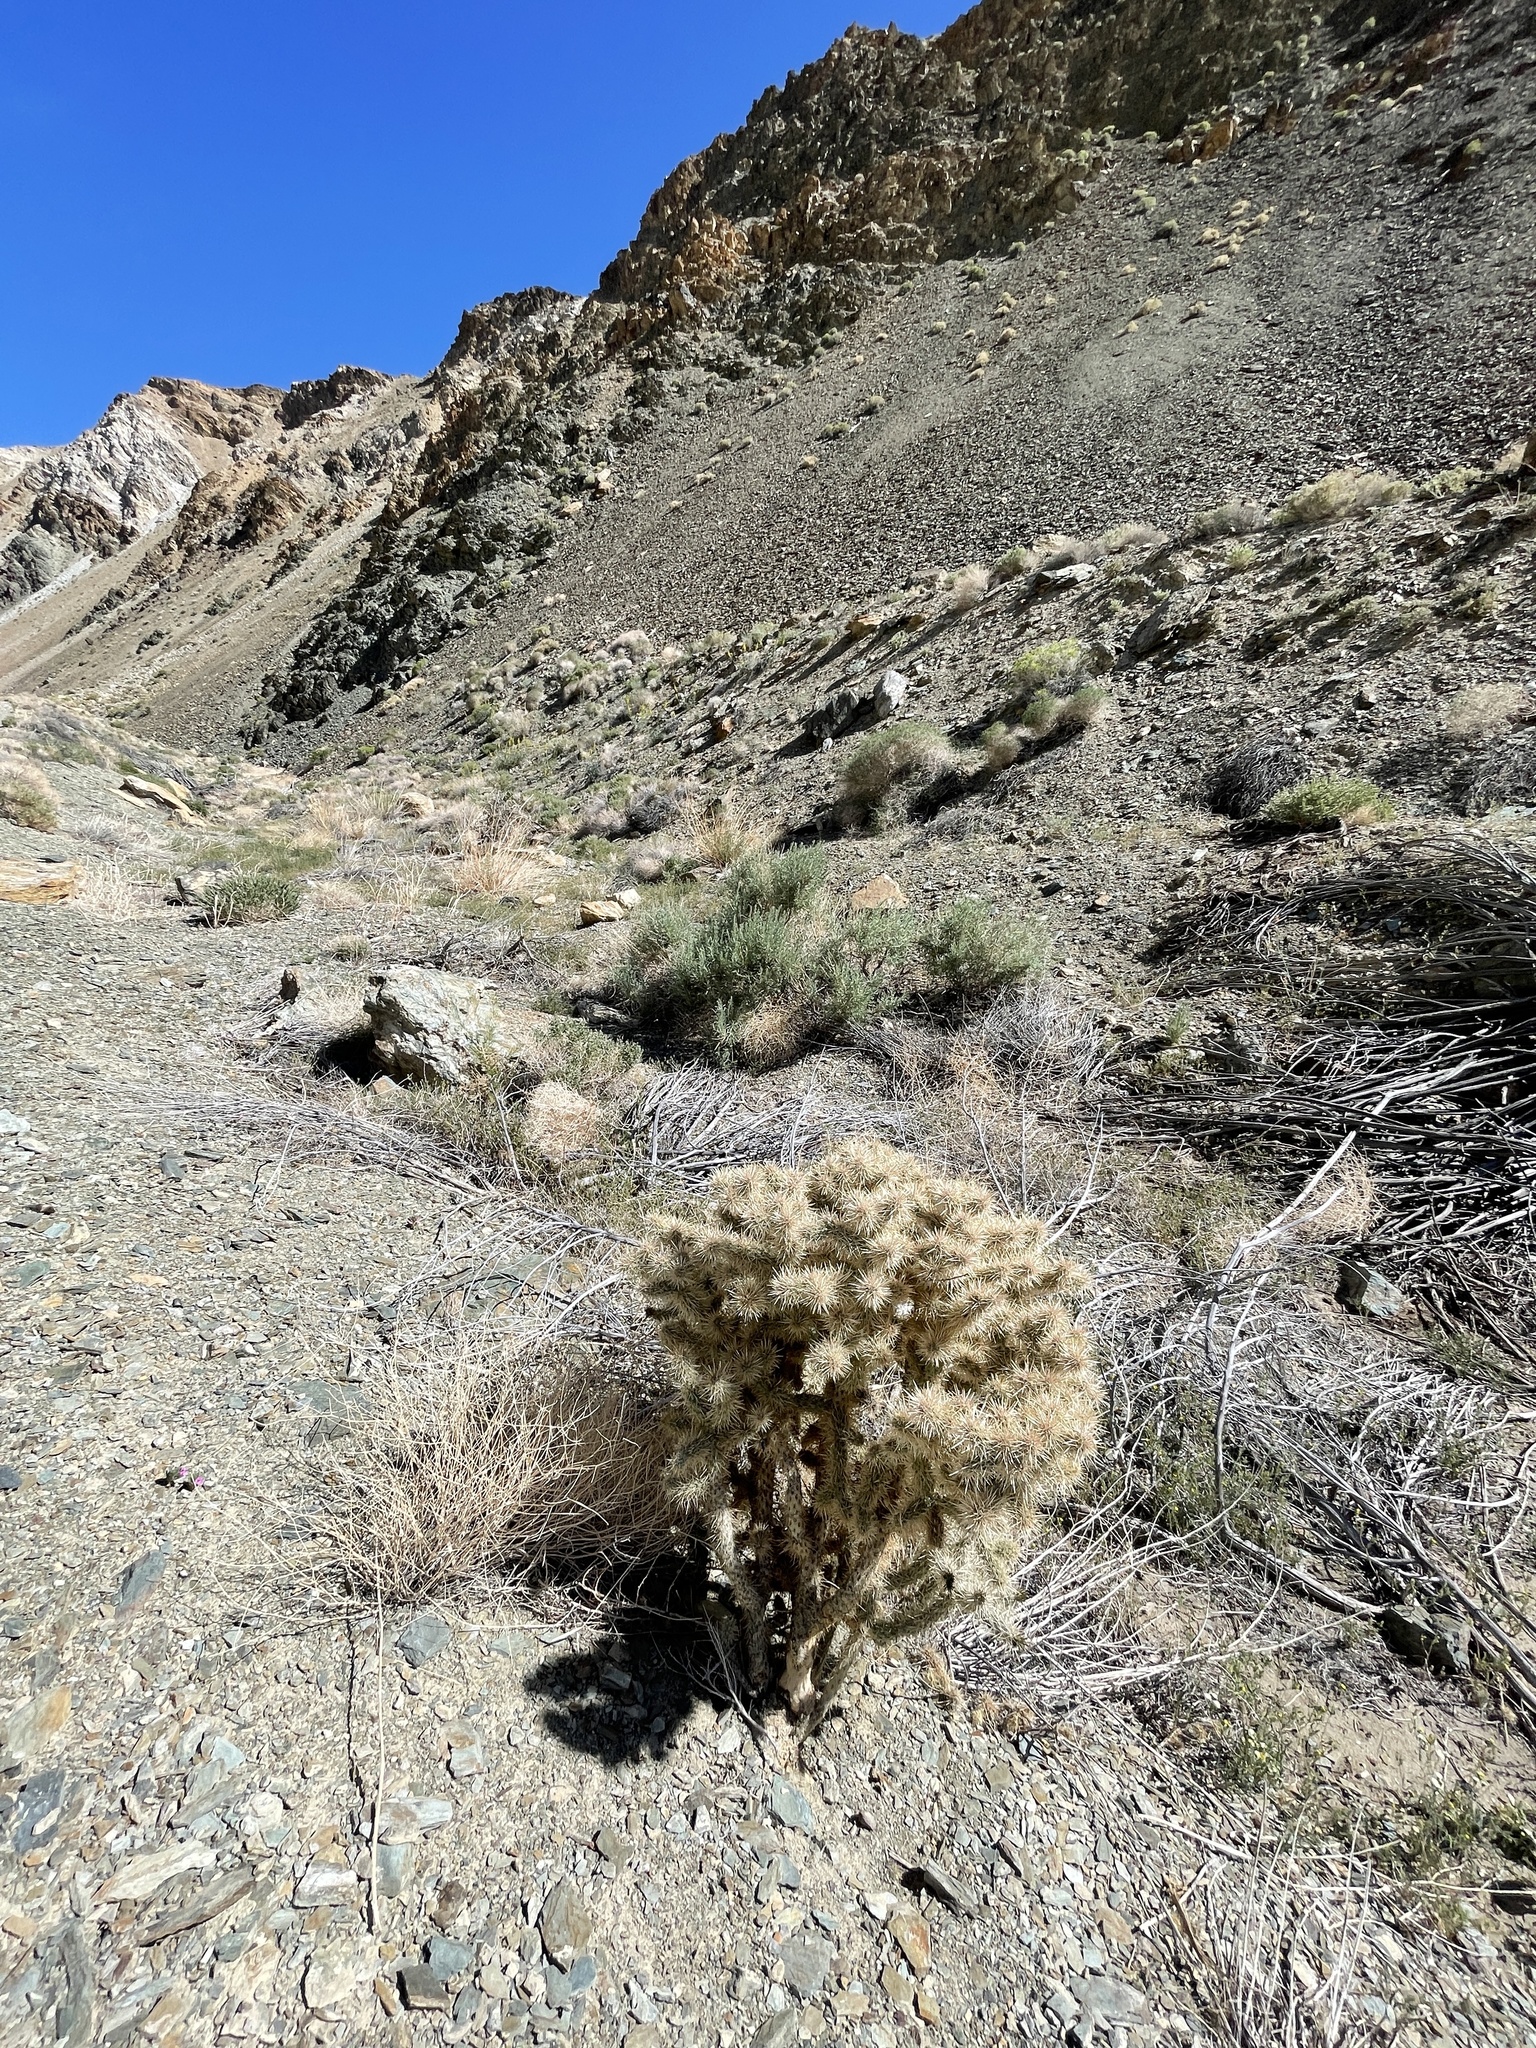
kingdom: Plantae
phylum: Tracheophyta
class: Magnoliopsida
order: Caryophyllales
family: Cactaceae
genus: Cylindropuntia
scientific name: Cylindropuntia echinocarpa
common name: Ground cholla
